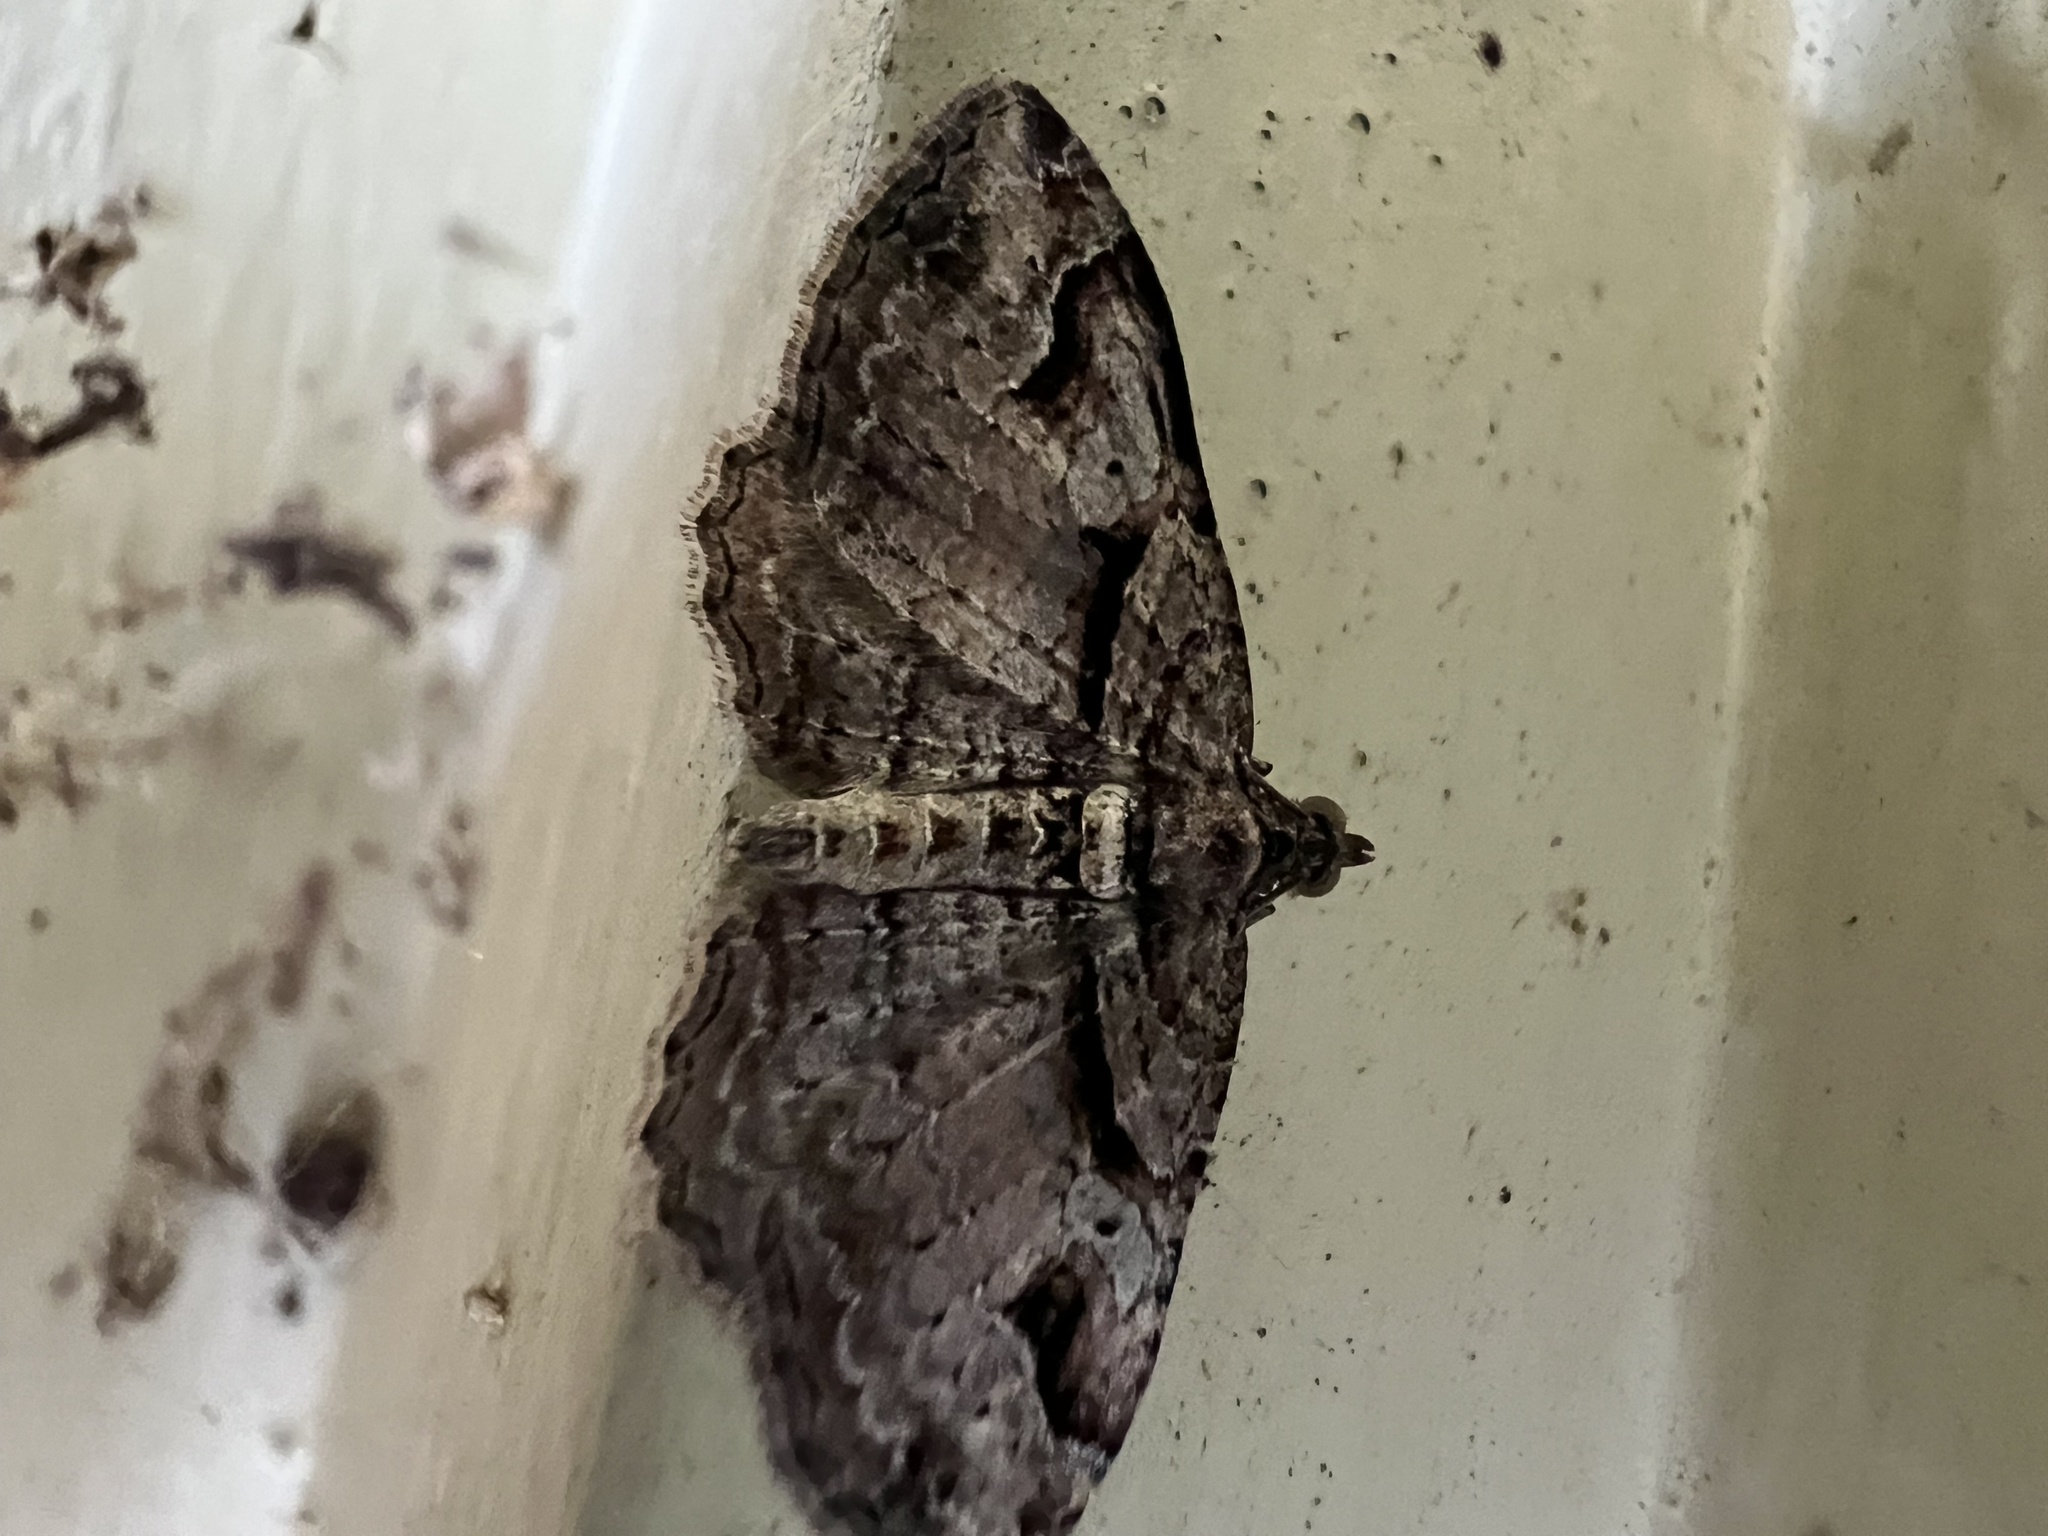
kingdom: Animalia
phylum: Arthropoda
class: Insecta
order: Lepidoptera
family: Geometridae
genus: Costaconvexa
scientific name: Costaconvexa centrostrigaria
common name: Bent-line carpet
